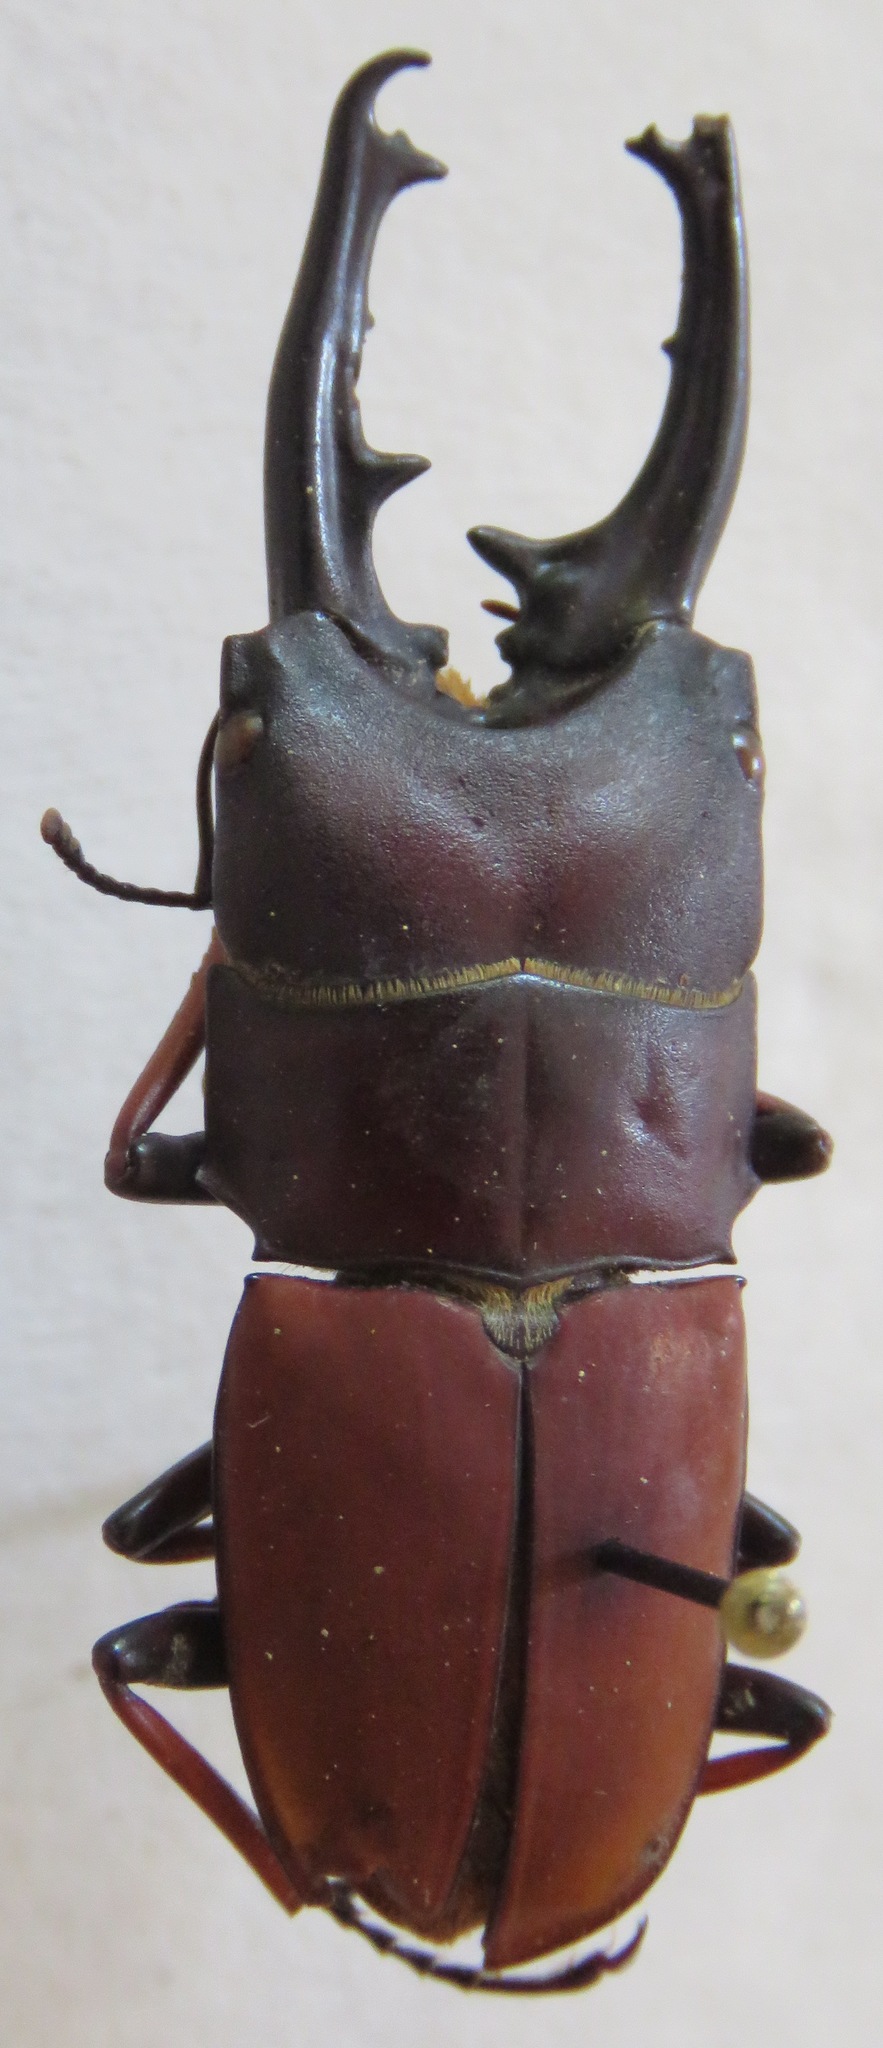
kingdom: Animalia
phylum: Arthropoda
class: Insecta
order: Coleoptera
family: Lucanidae
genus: Leptinopterus
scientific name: Leptinopterus tibialis
